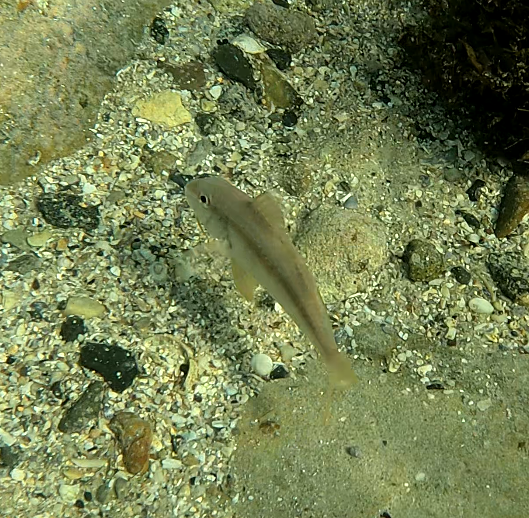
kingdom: Animalia
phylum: Chordata
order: Perciformes
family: Mullidae
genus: Upeneichthys
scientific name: Upeneichthys lineatus
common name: Red mullet
